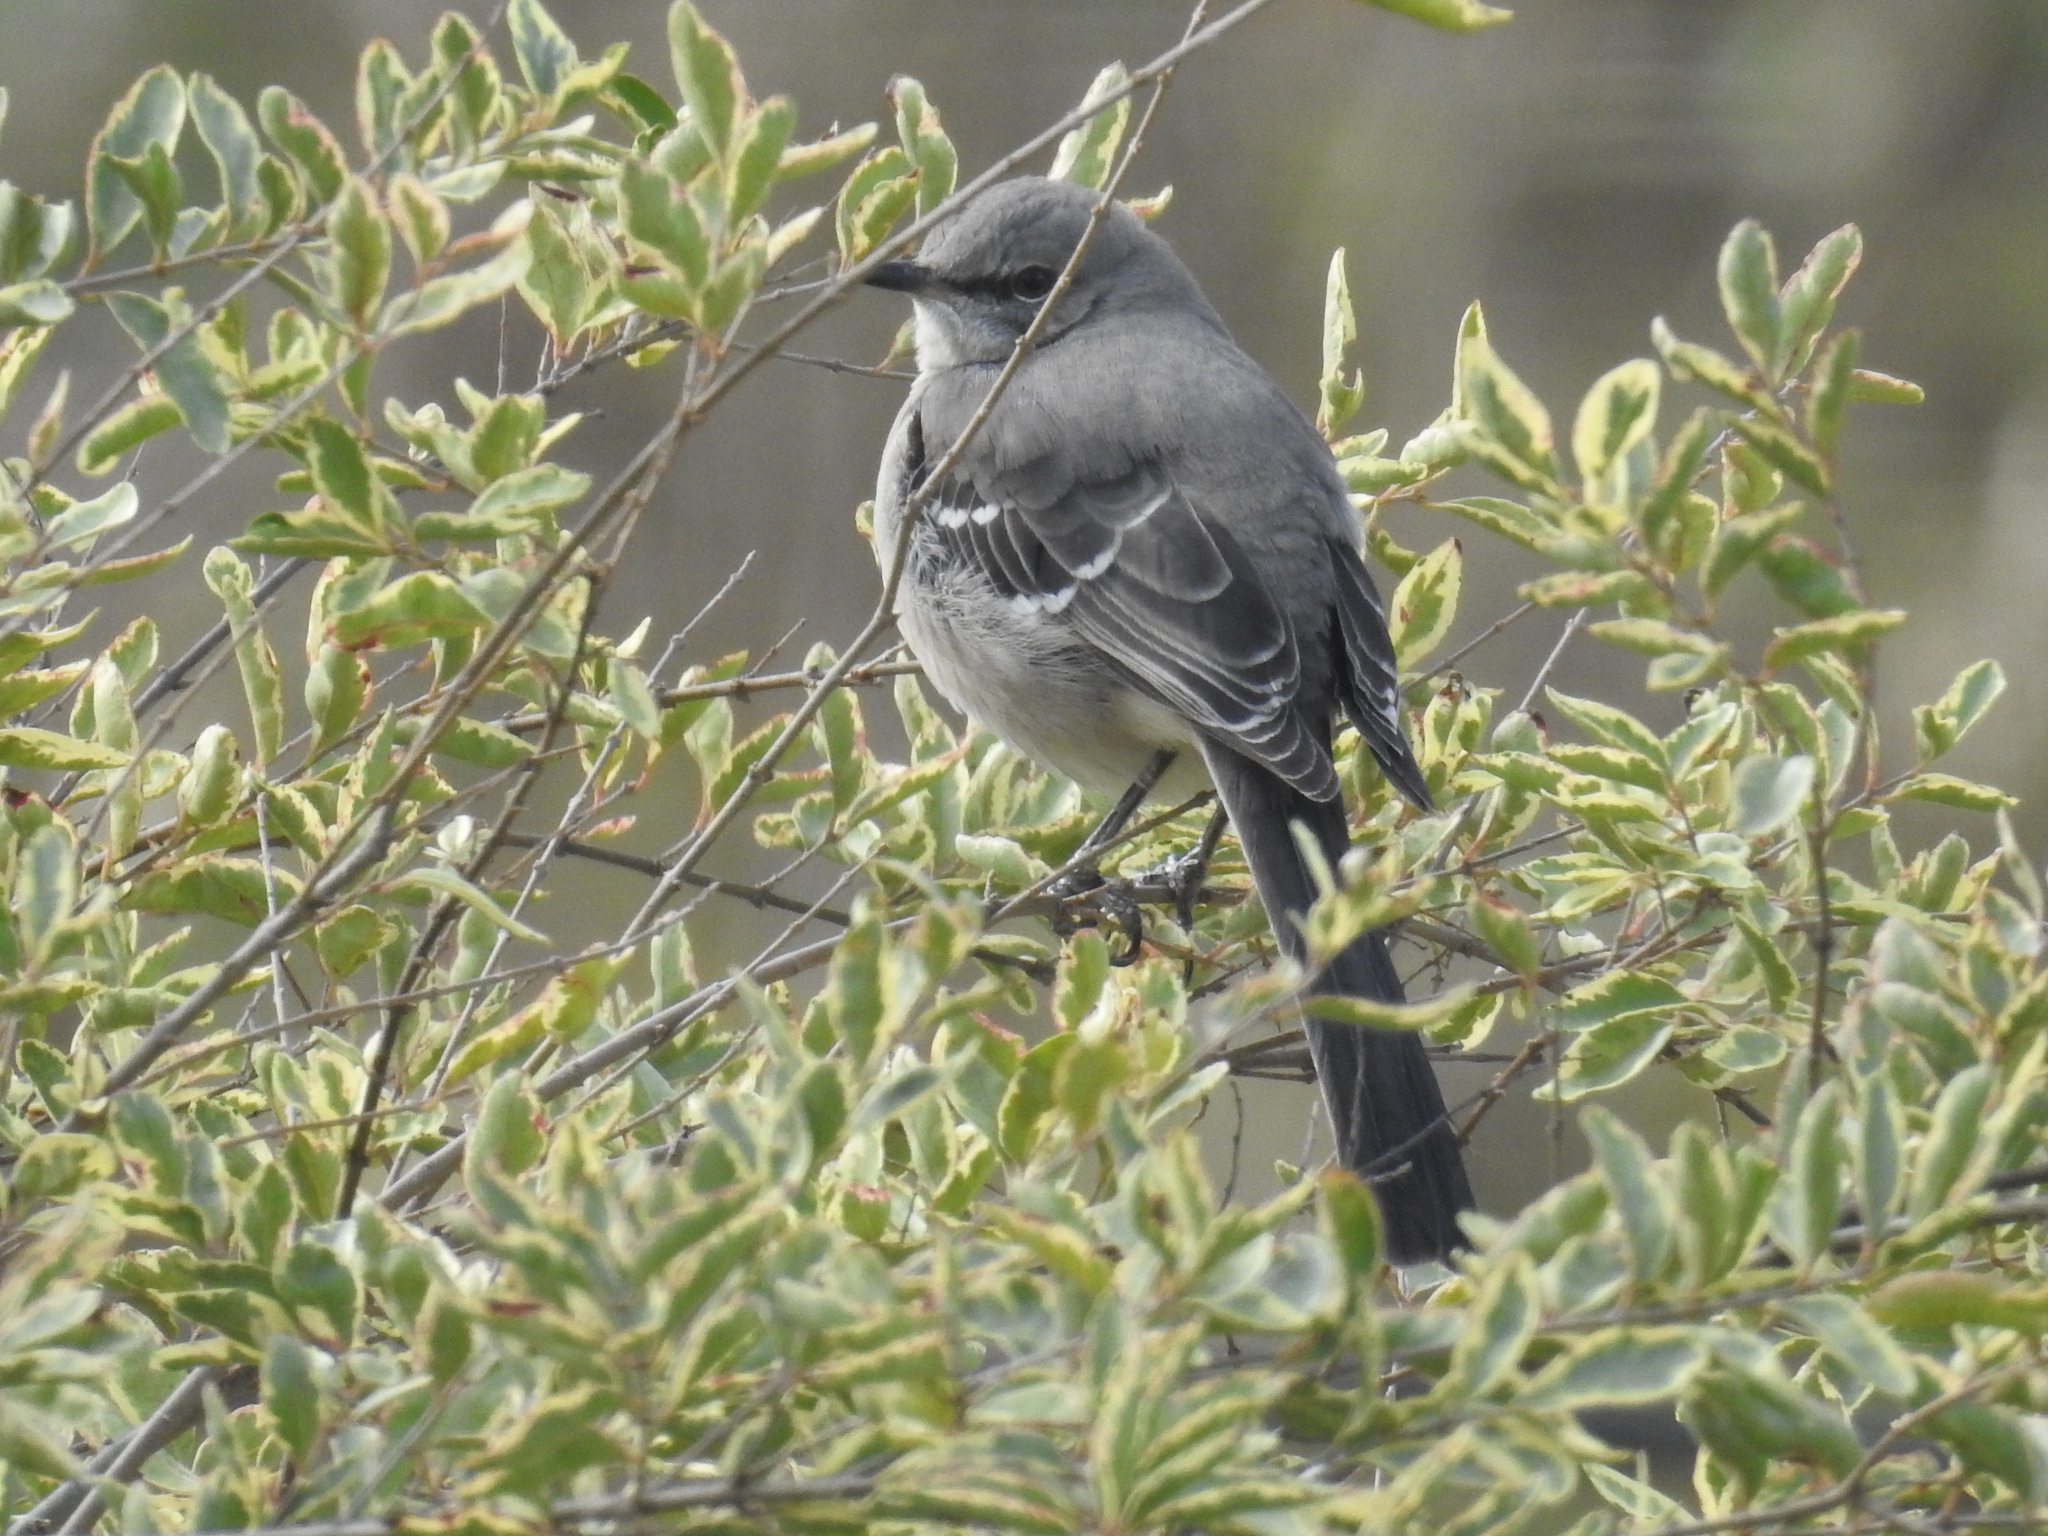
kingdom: Animalia
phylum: Chordata
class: Aves
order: Passeriformes
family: Mimidae
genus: Mimus
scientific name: Mimus polyglottos
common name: Northern mockingbird
